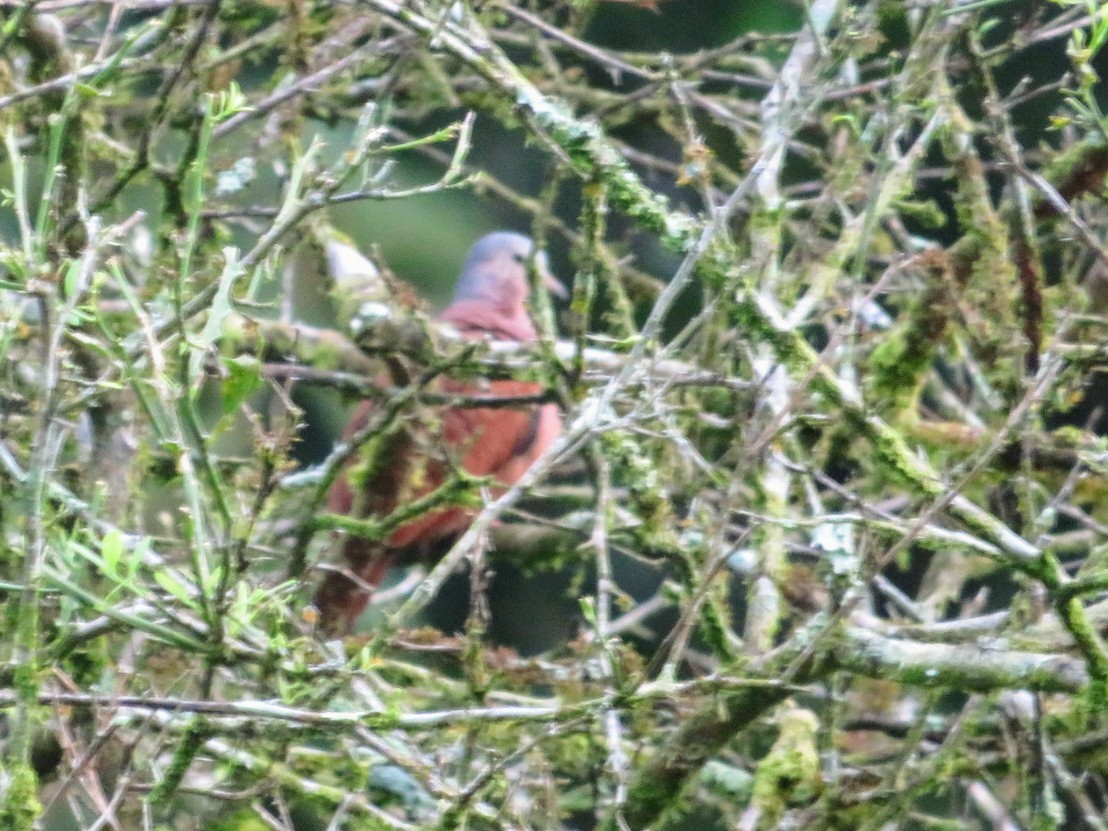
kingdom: Animalia
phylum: Chordata
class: Aves
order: Columbiformes
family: Columbidae
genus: Columbina
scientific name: Columbina talpacoti
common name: Ruddy ground dove
